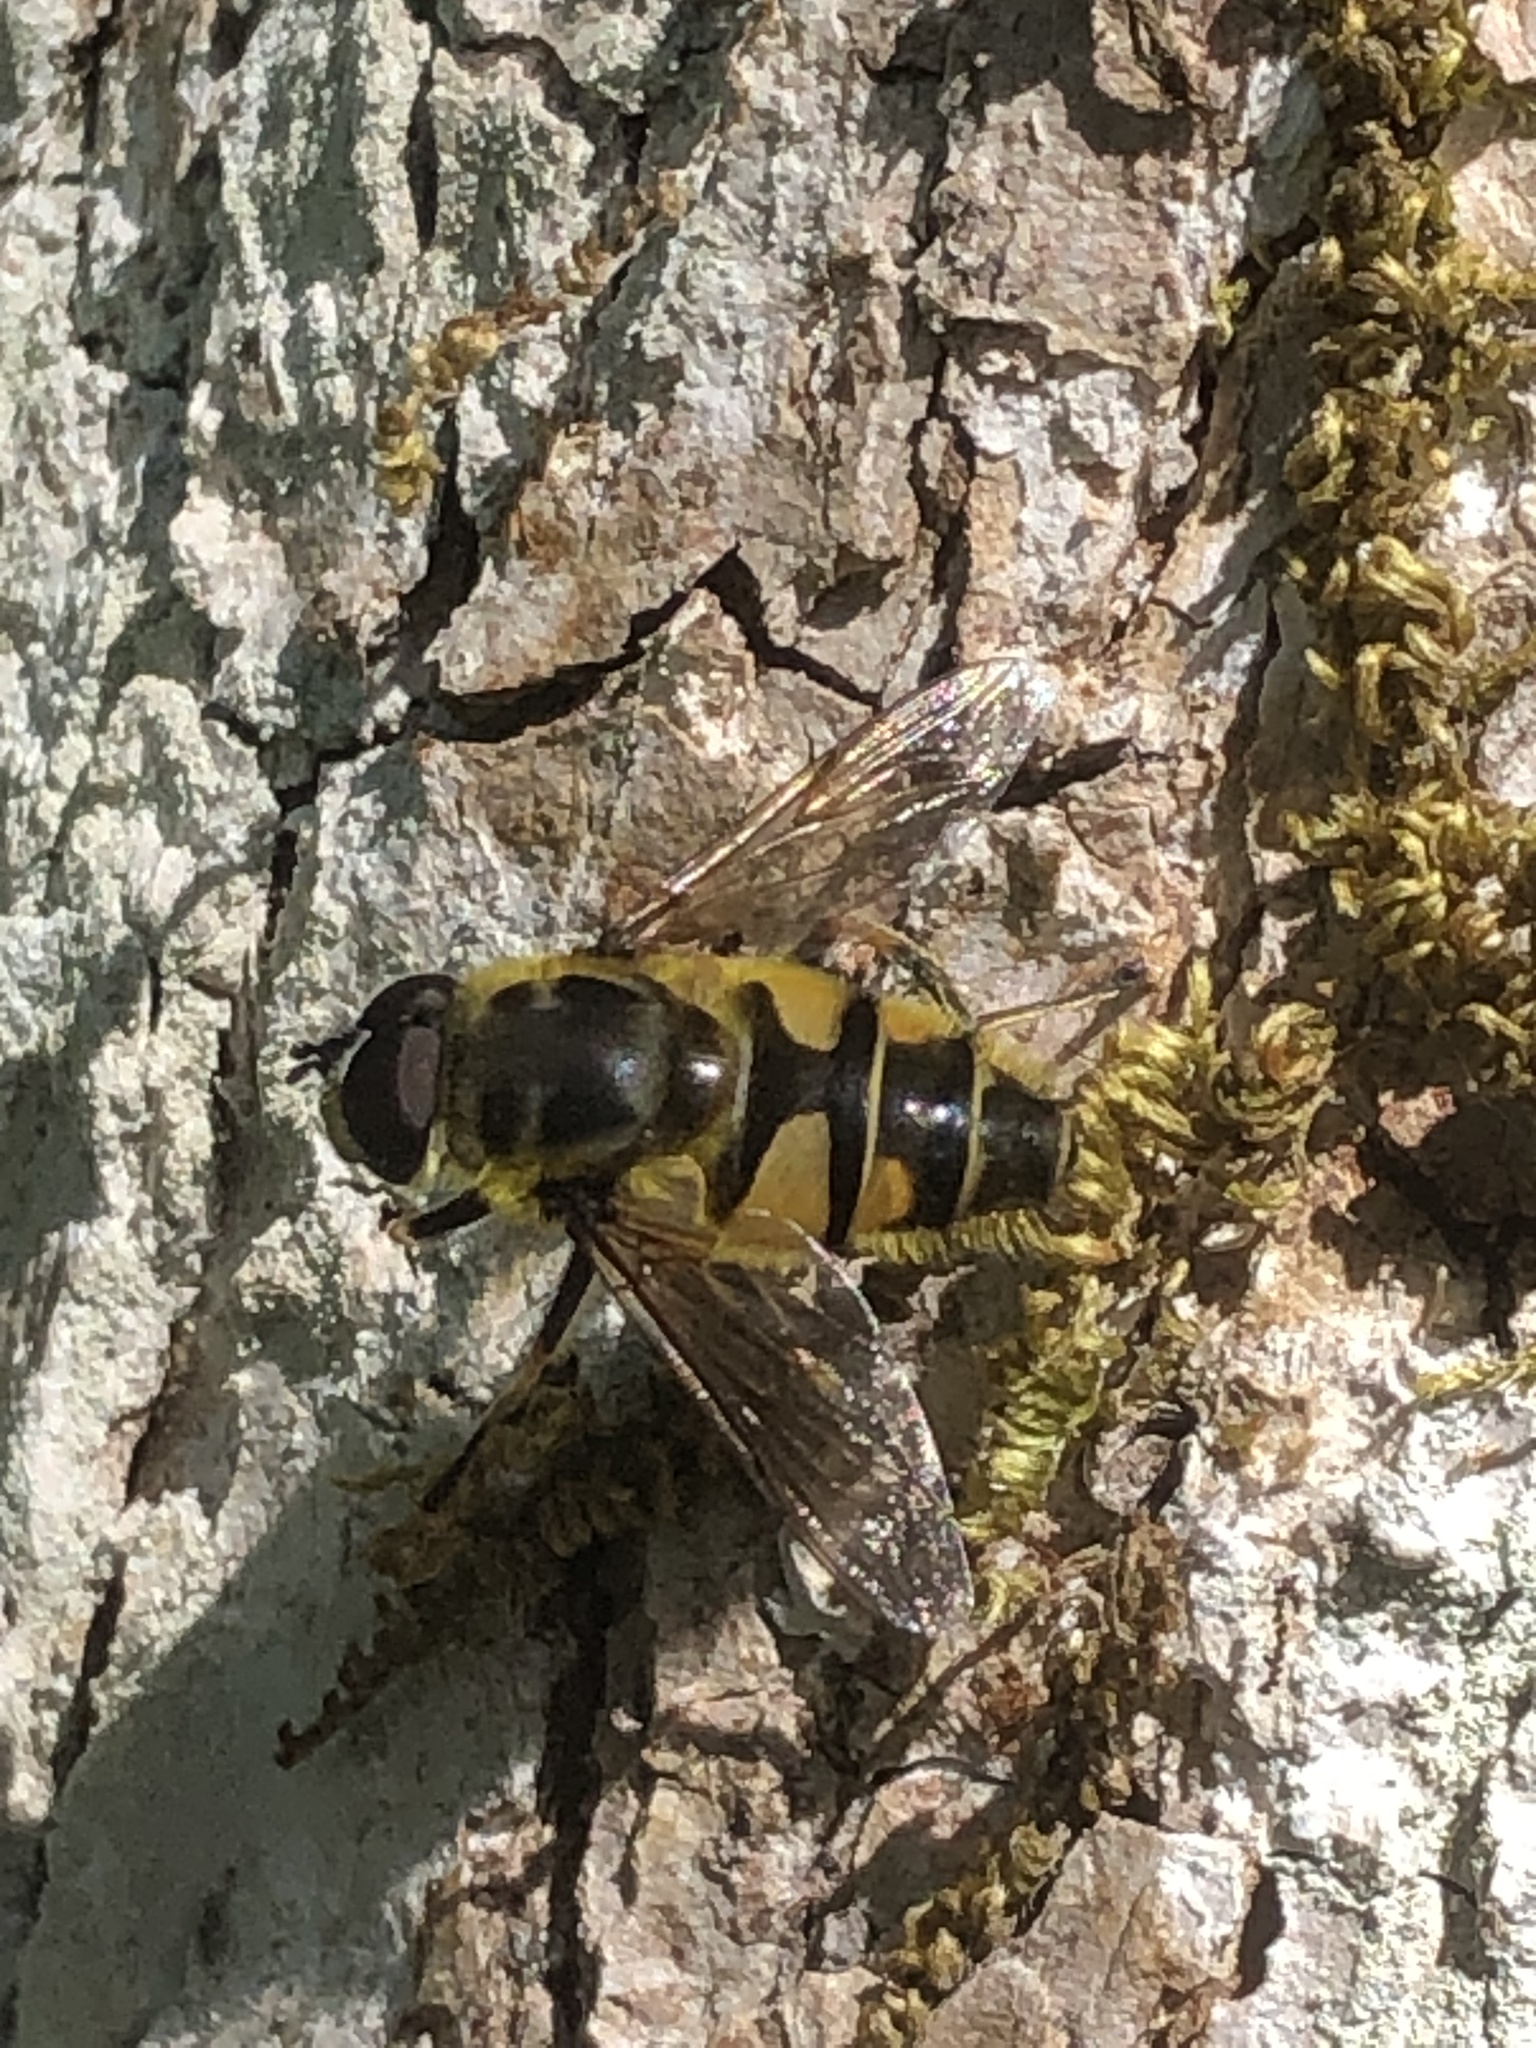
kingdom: Animalia
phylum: Arthropoda
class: Insecta
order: Diptera
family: Syrphidae
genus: Myathropa
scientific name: Myathropa florea
